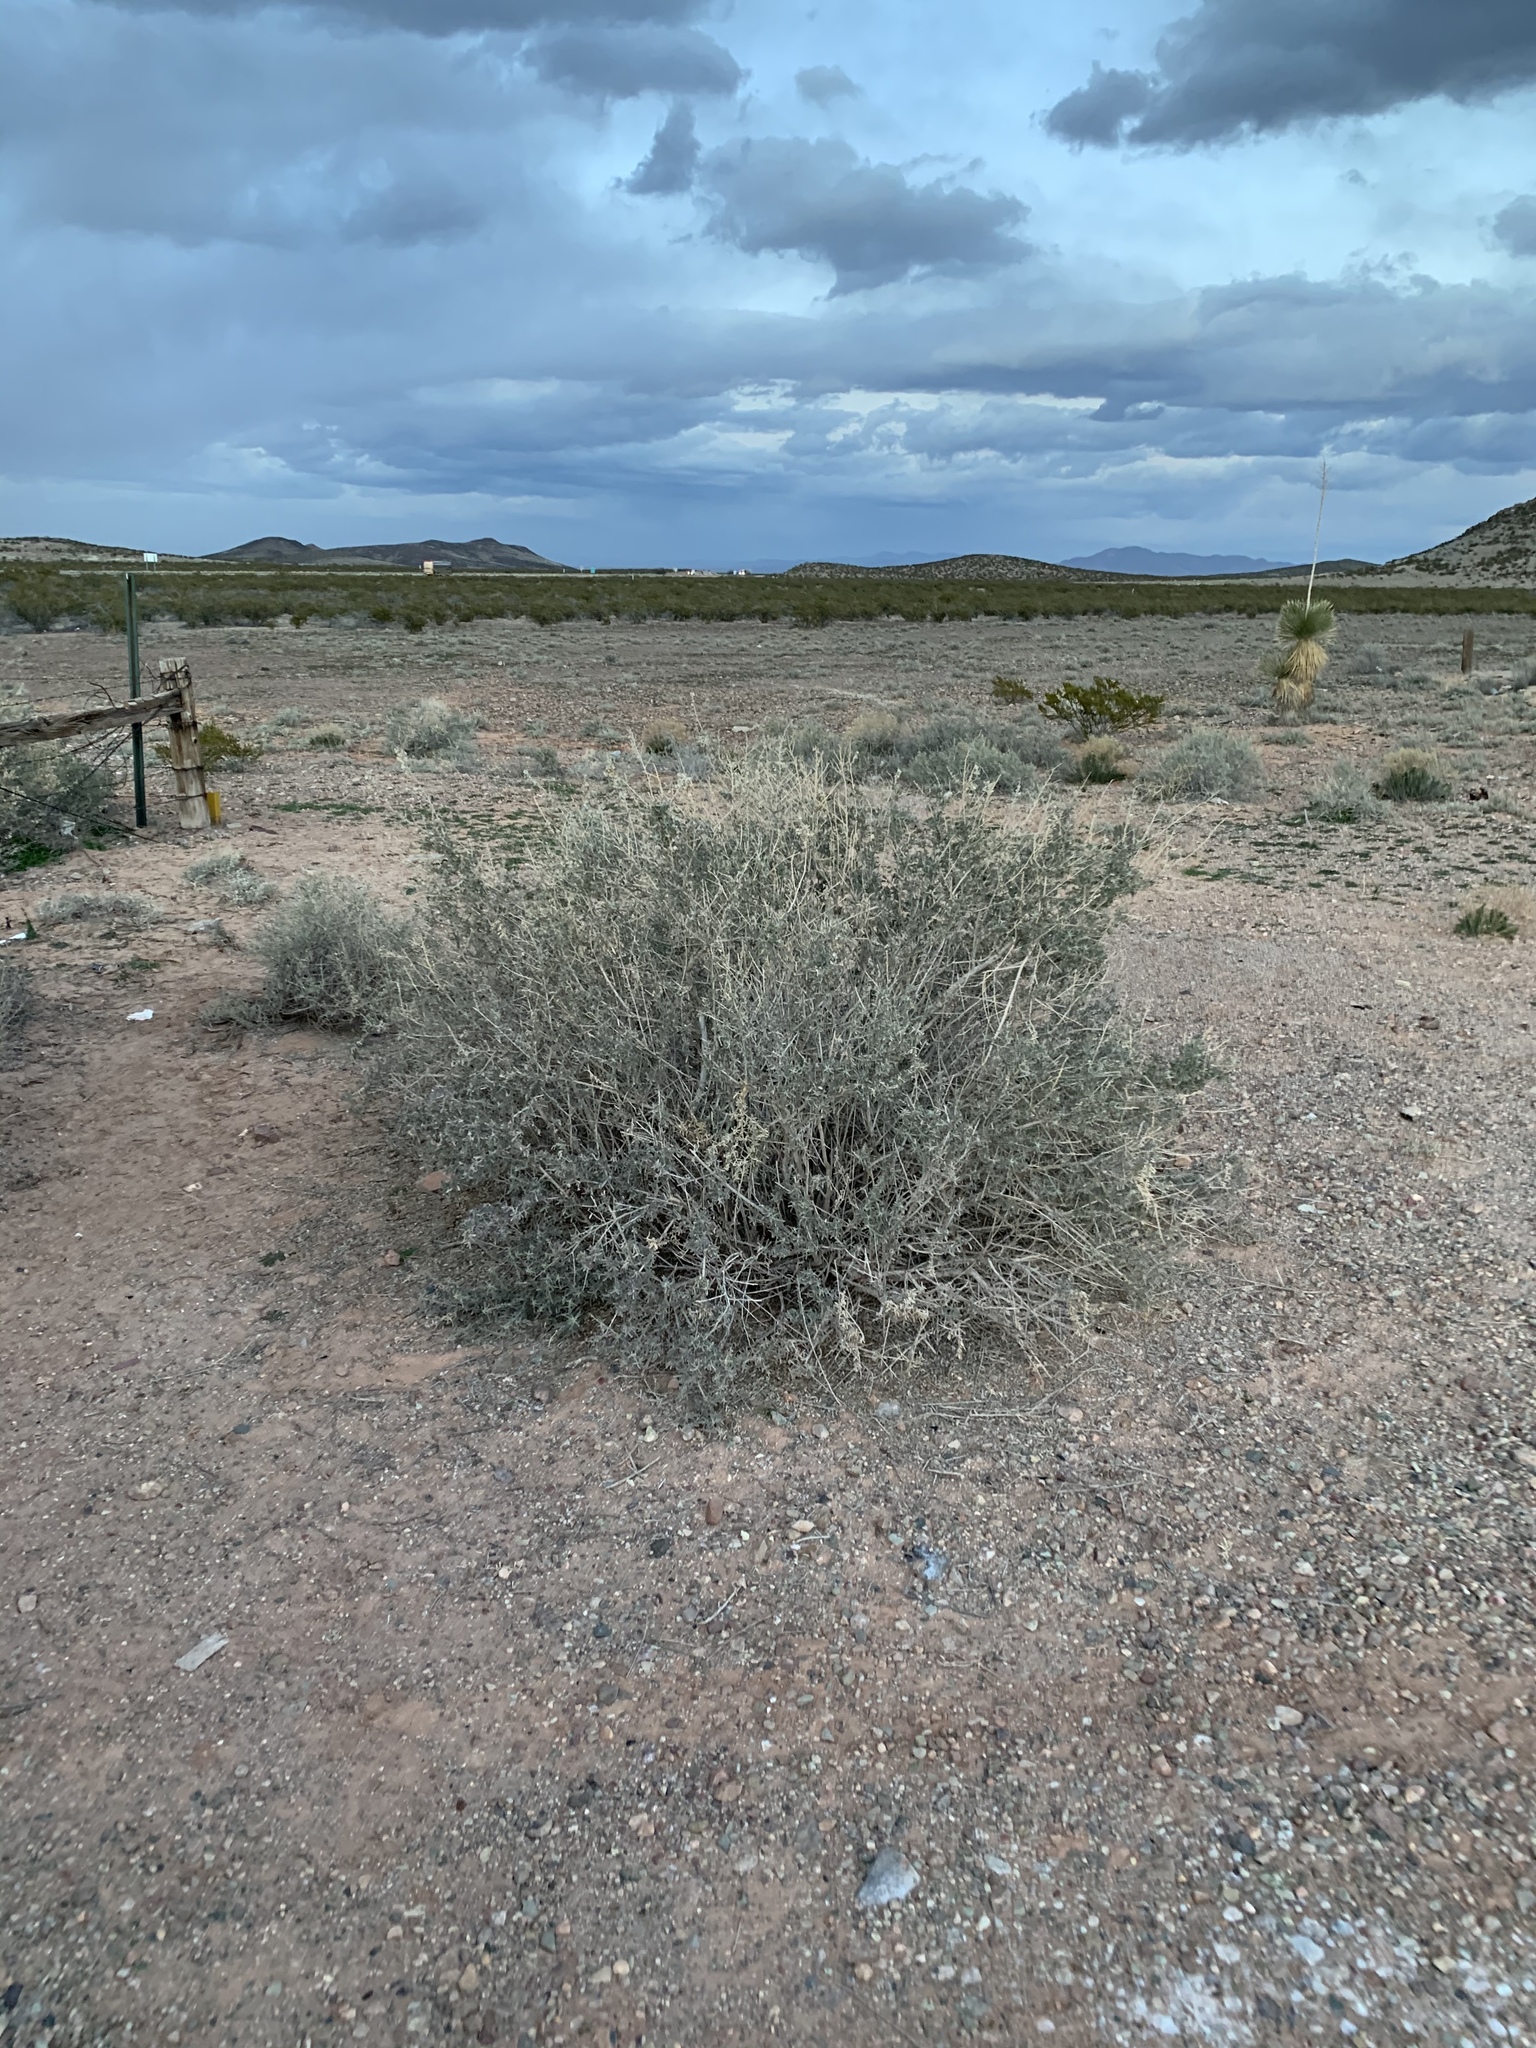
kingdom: Plantae
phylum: Tracheophyta
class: Magnoliopsida
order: Caryophyllales
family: Amaranthaceae
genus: Atriplex
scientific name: Atriplex canescens
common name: Four-wing saltbush
